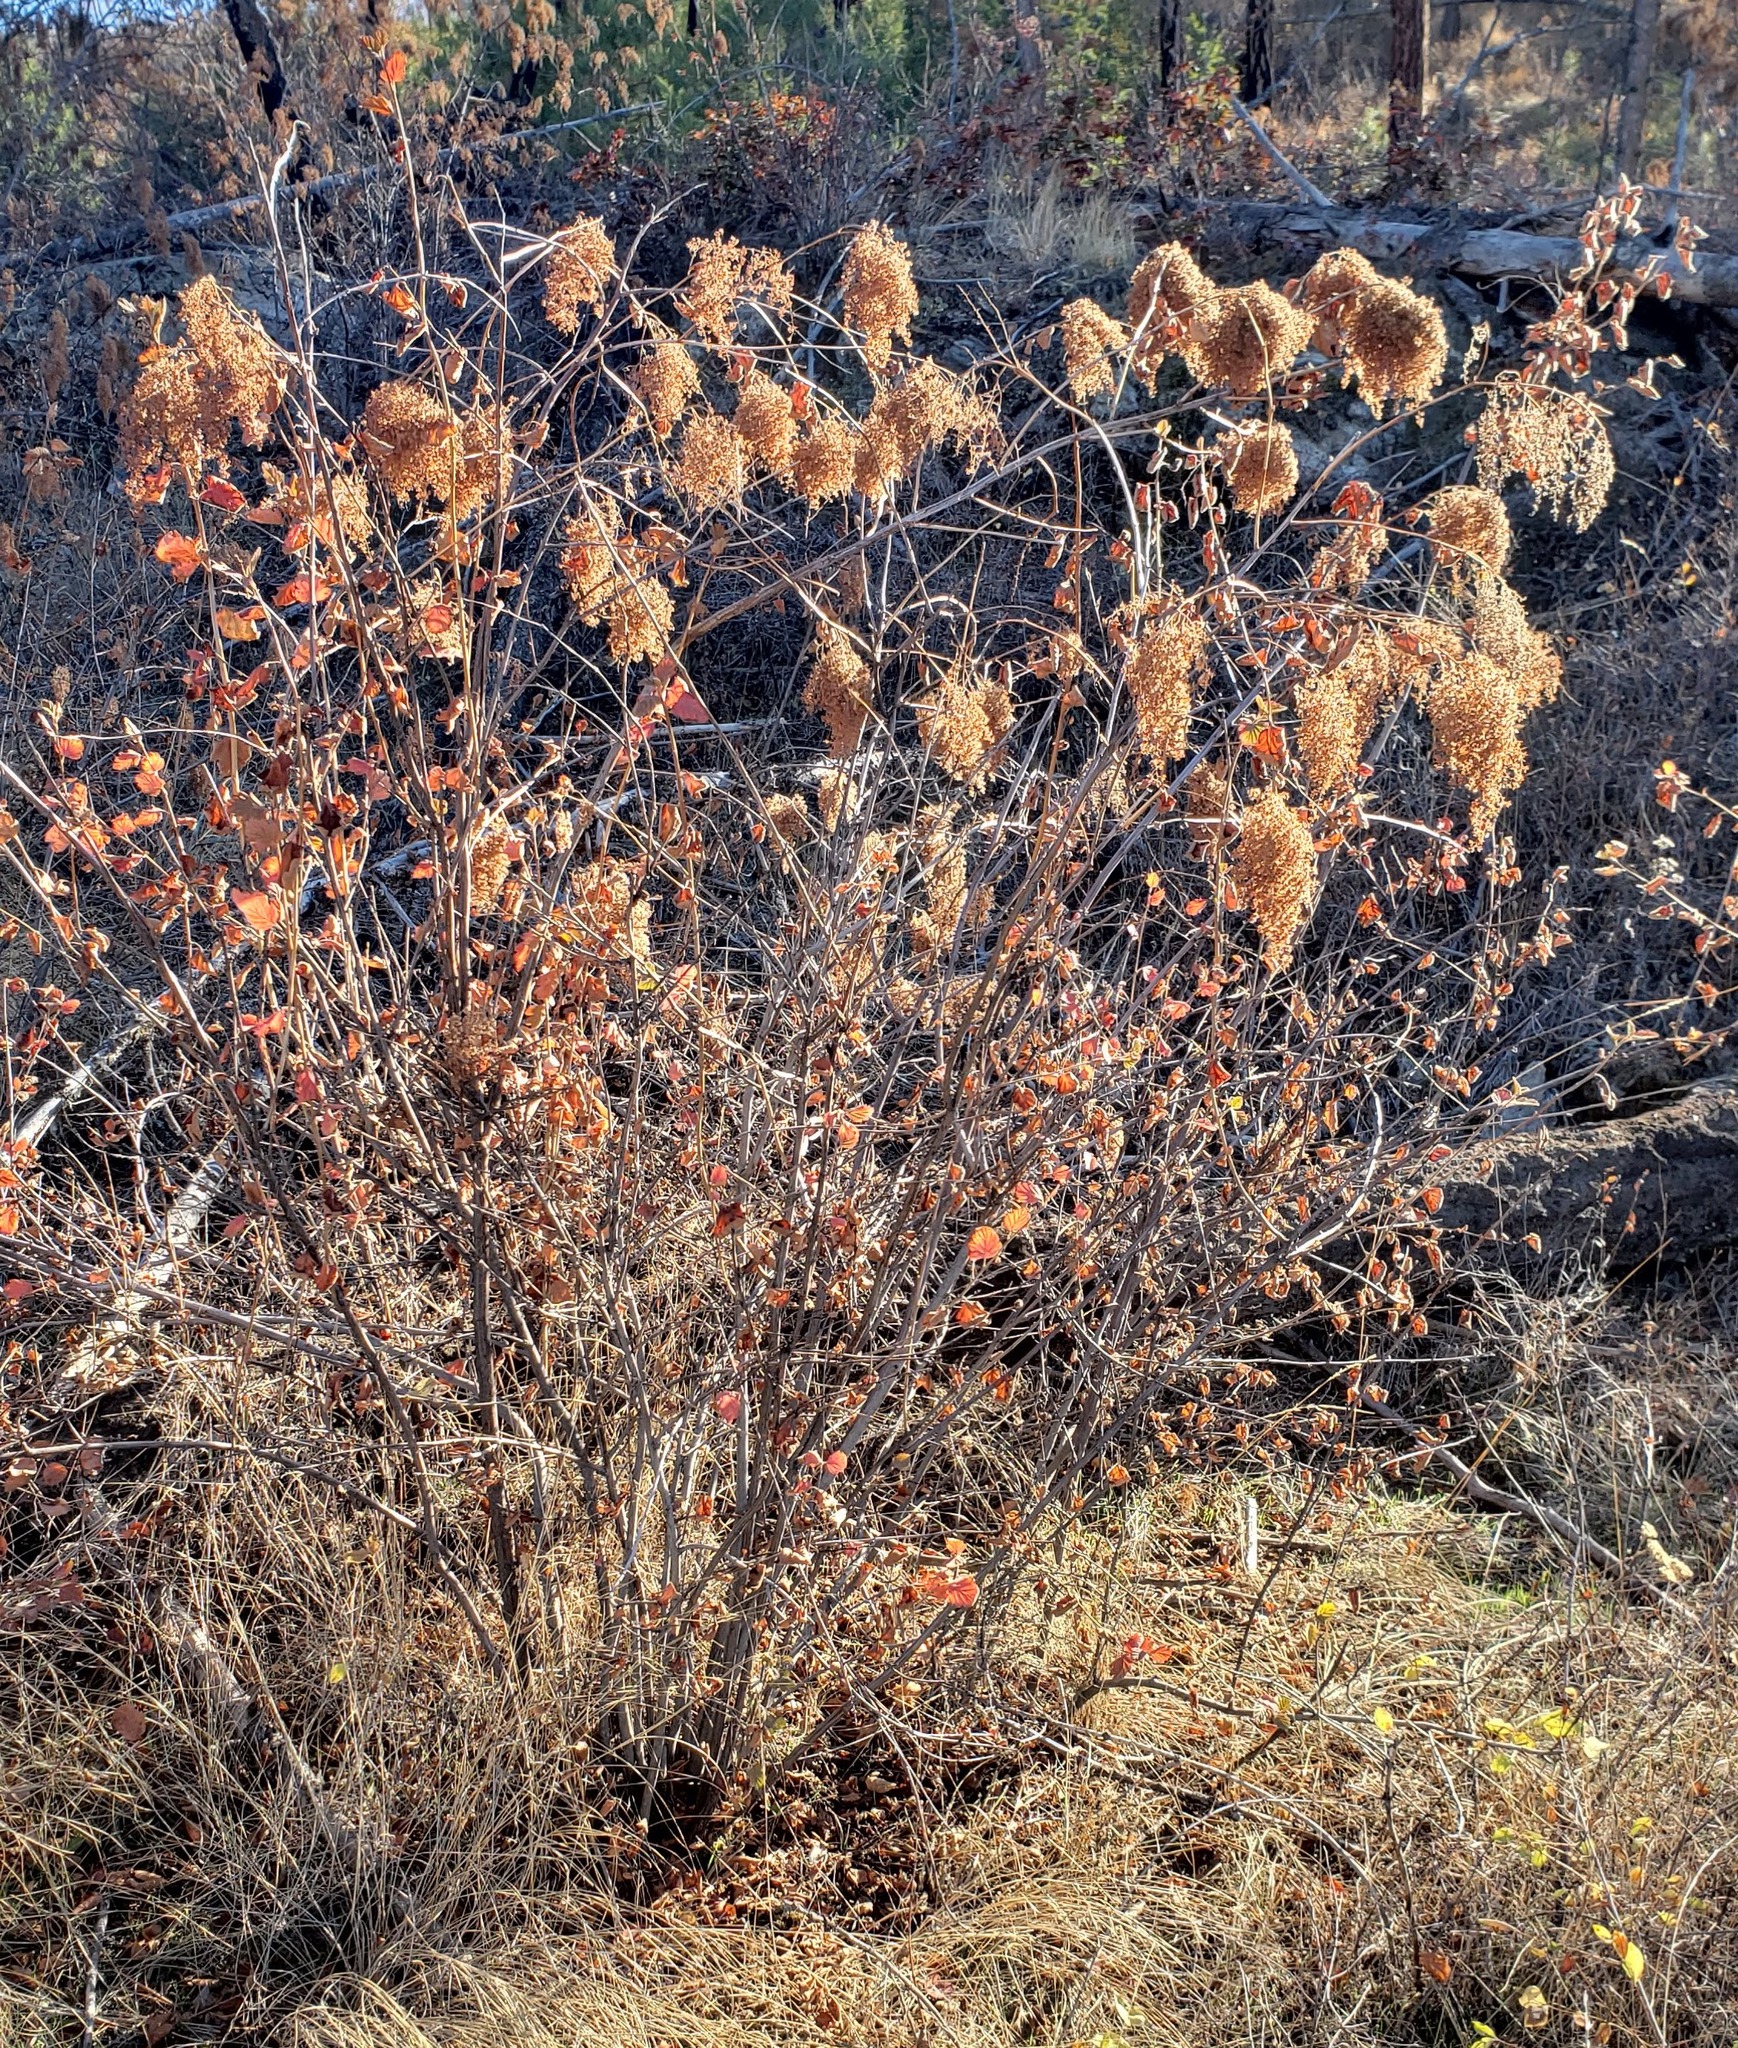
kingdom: Plantae
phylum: Tracheophyta
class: Magnoliopsida
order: Rosales
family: Rosaceae
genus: Holodiscus
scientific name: Holodiscus discolor
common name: Oceanspray
